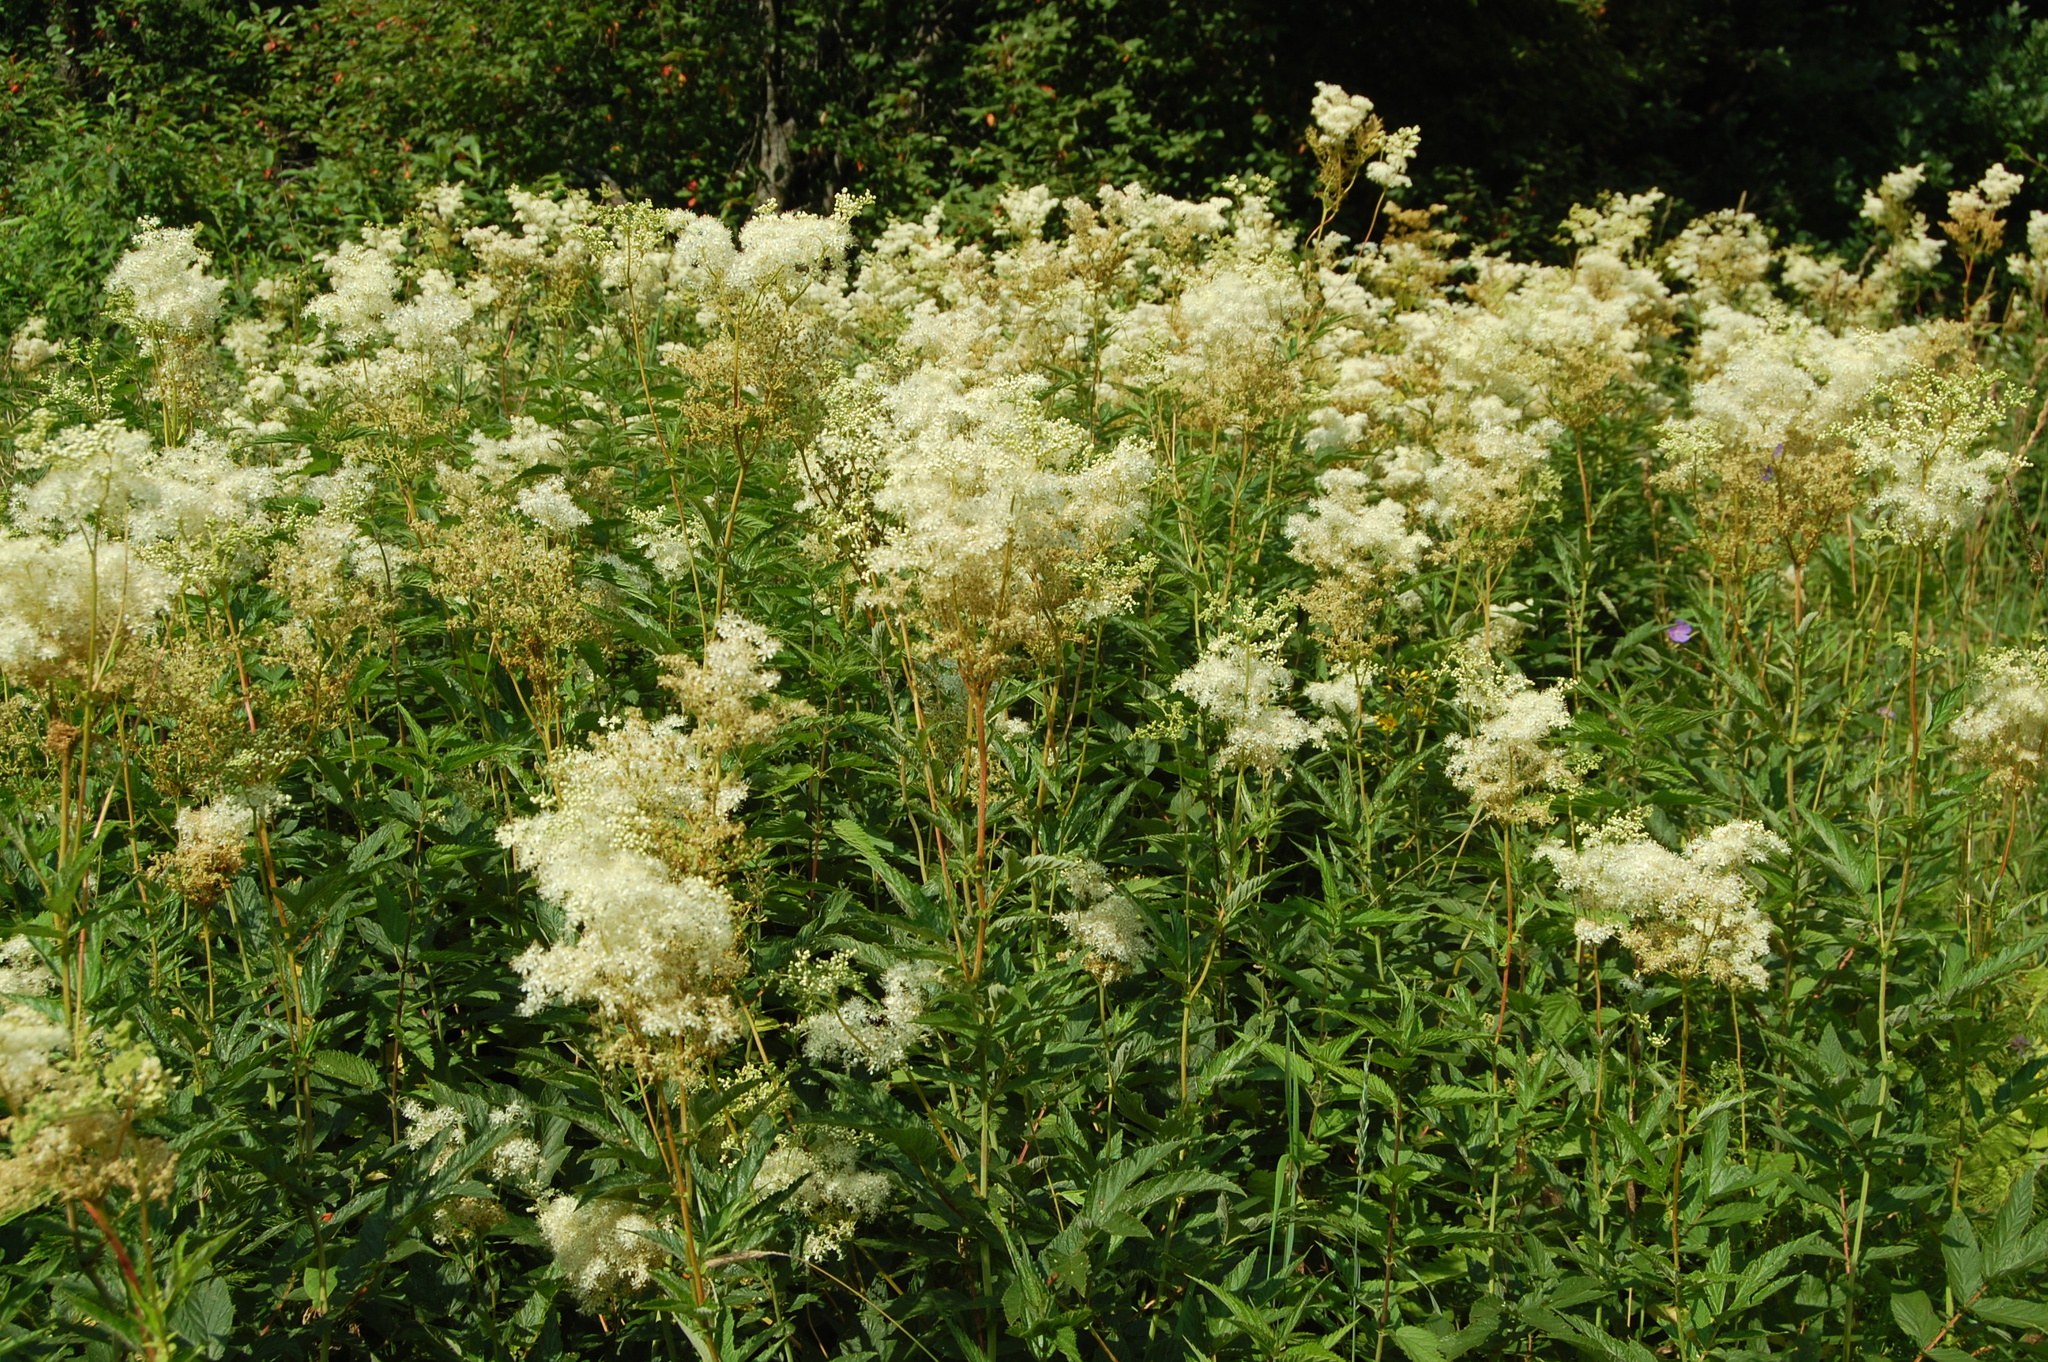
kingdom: Plantae
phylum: Tracheophyta
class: Magnoliopsida
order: Rosales
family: Rosaceae
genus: Filipendula
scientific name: Filipendula ulmaria
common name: Meadowsweet
